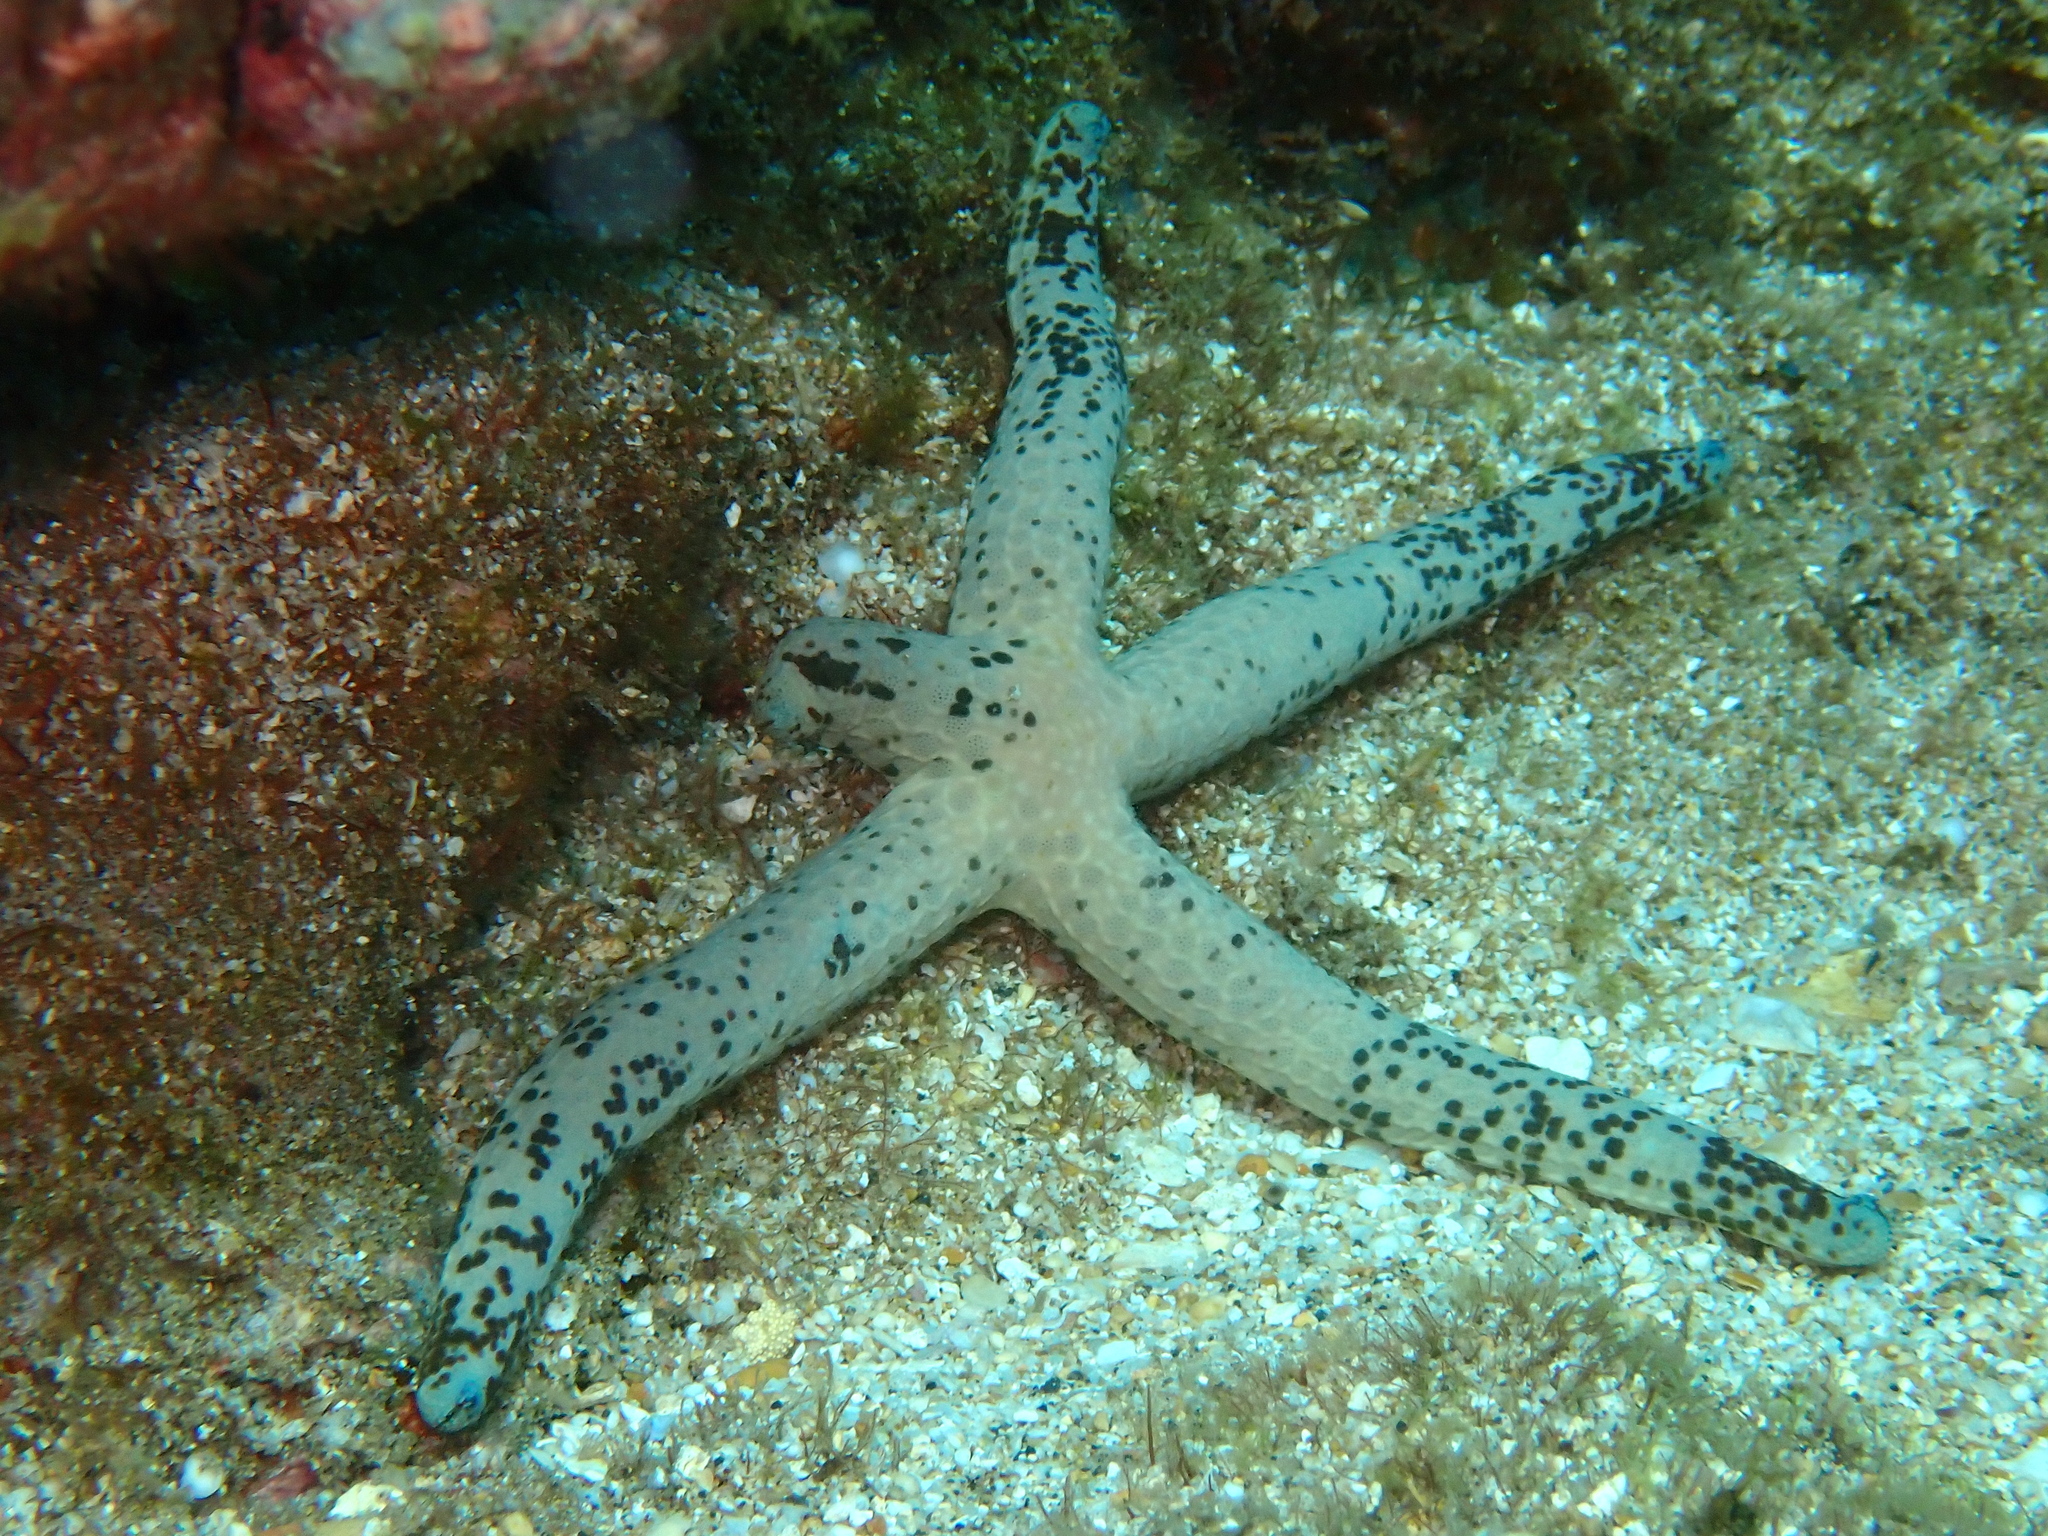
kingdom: Animalia
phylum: Echinodermata
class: Asteroidea
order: Valvatida
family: Ophidiasteridae
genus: Linckia
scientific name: Linckia multifora
